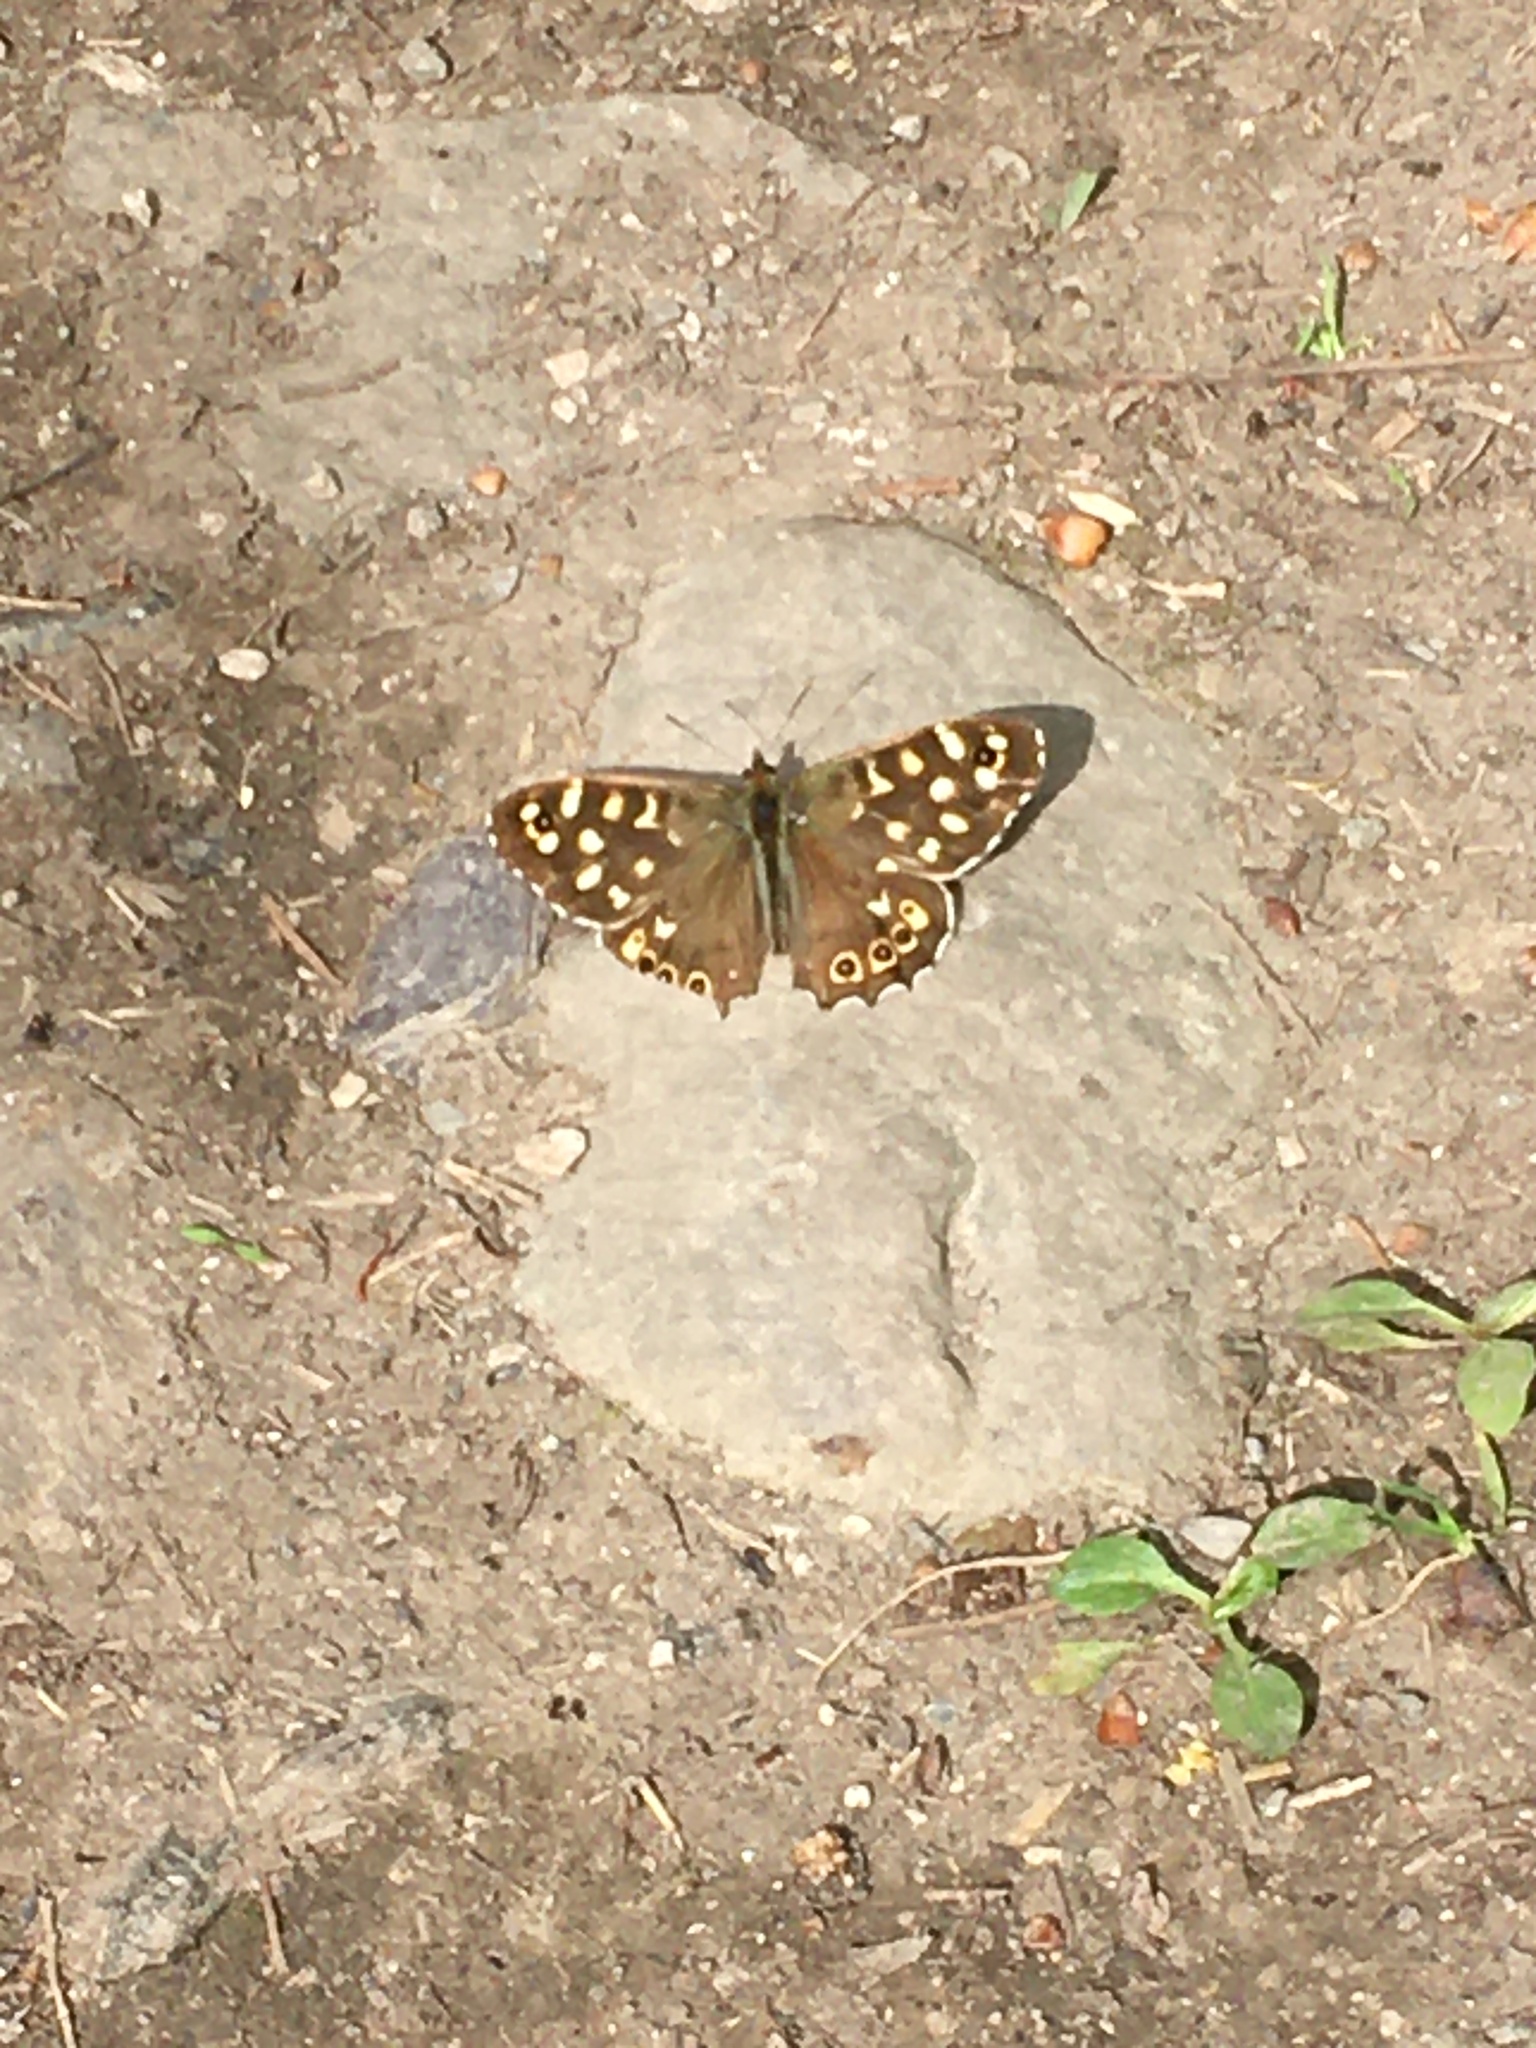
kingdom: Animalia
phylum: Arthropoda
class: Insecta
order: Lepidoptera
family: Nymphalidae
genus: Pararge
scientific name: Pararge aegeria
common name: Speckled wood
